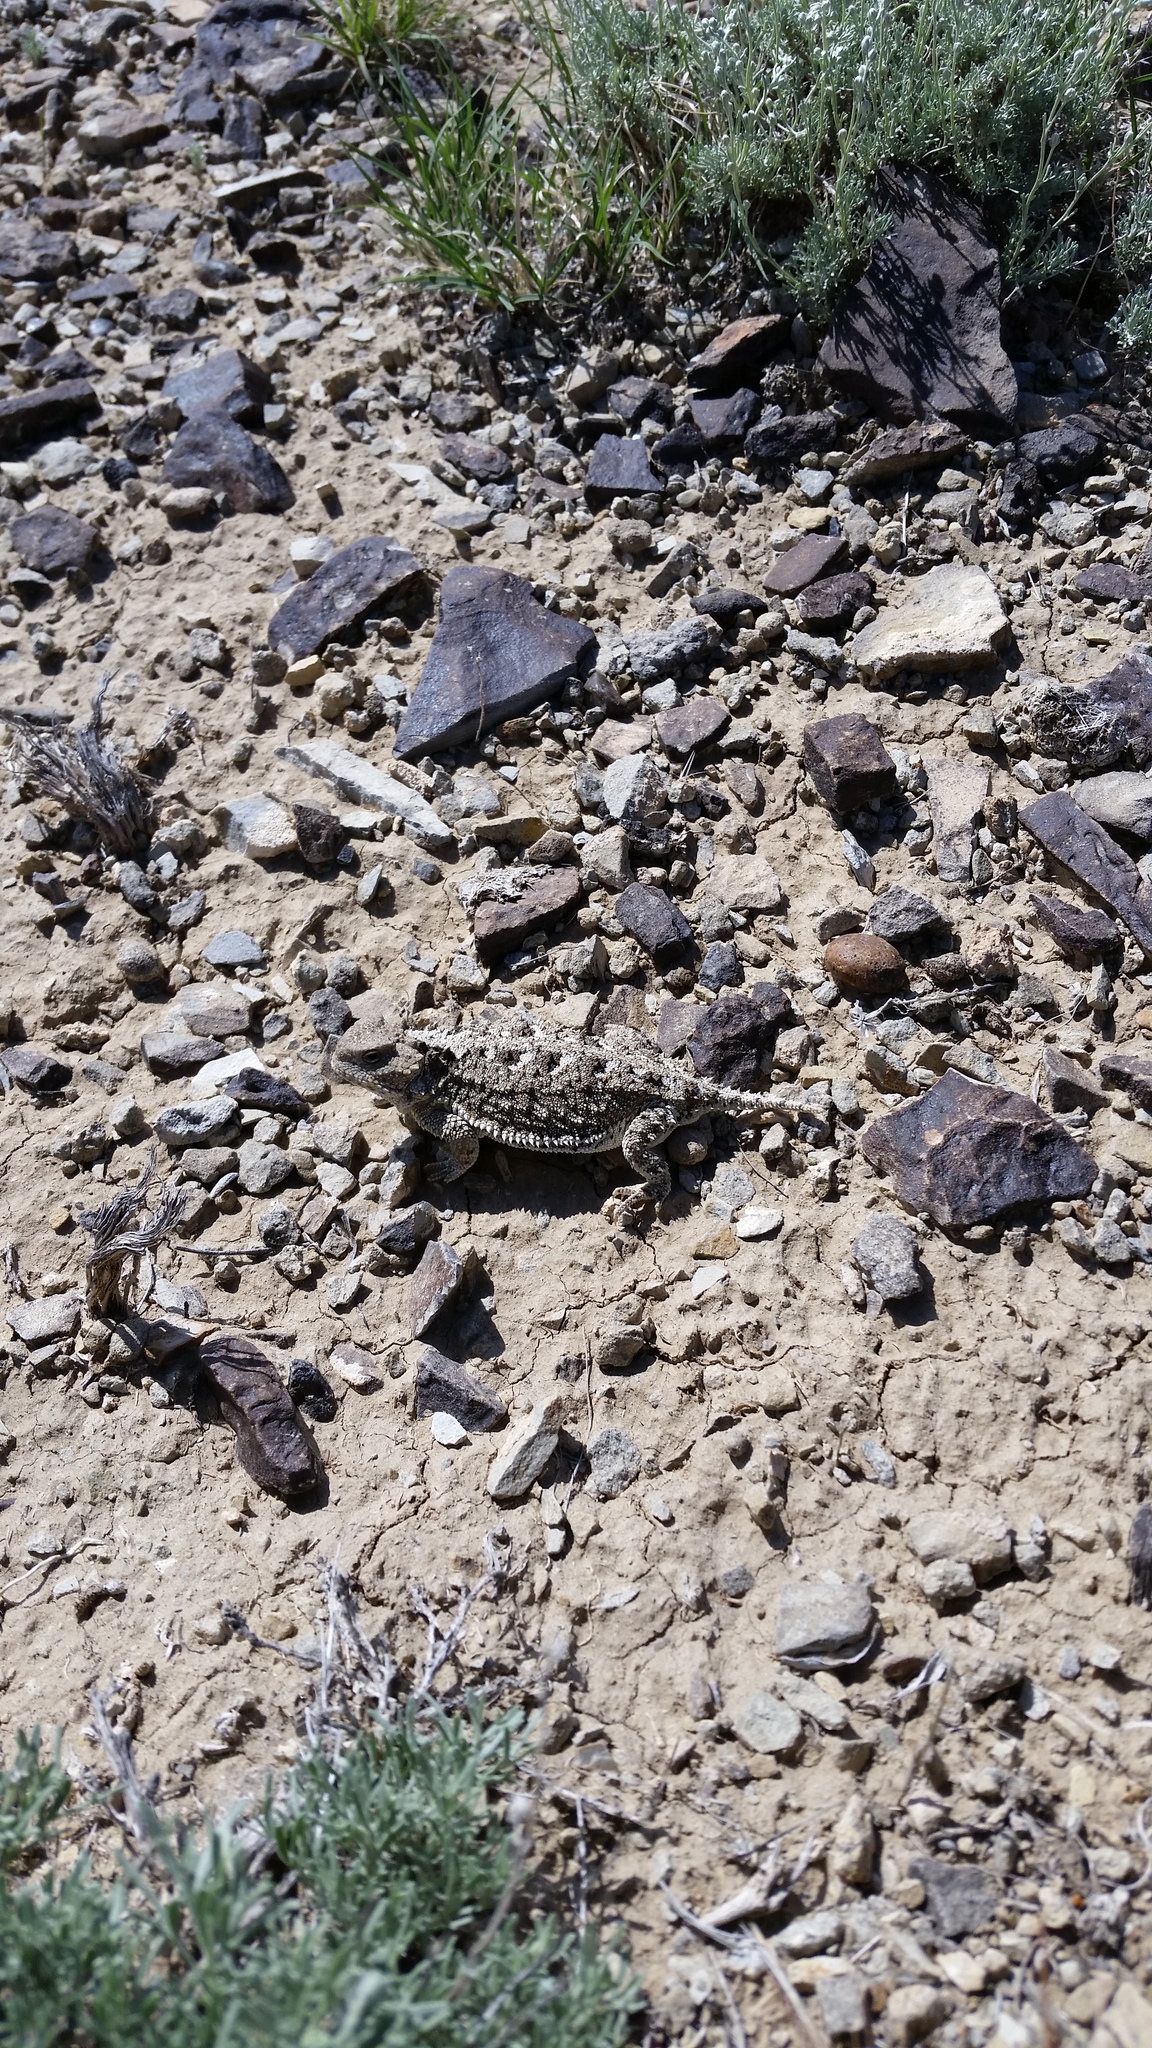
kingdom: Animalia
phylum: Chordata
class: Squamata
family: Phrynosomatidae
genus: Phrynosoma
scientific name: Phrynosoma hernandesi
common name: Greater short-horned lizard
